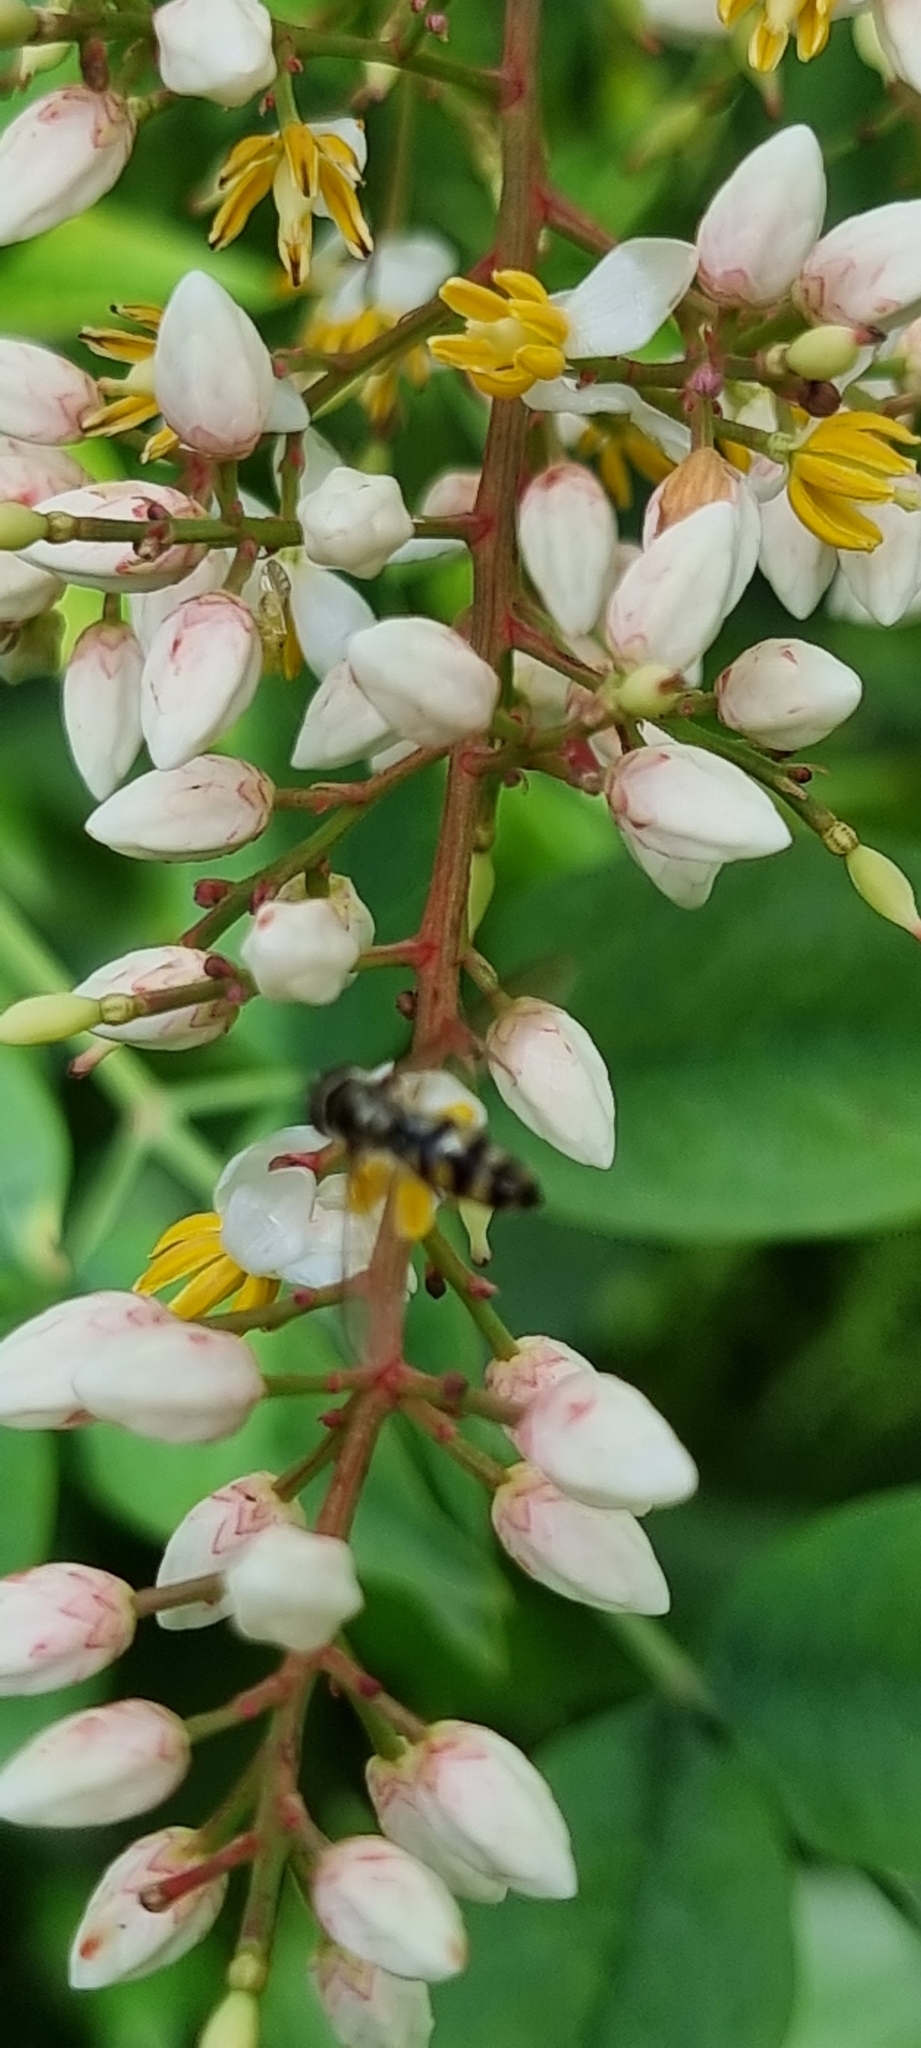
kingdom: Animalia
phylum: Arthropoda
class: Insecta
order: Diptera
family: Syrphidae
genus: Meliscaeva
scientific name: Meliscaeva auricollis
